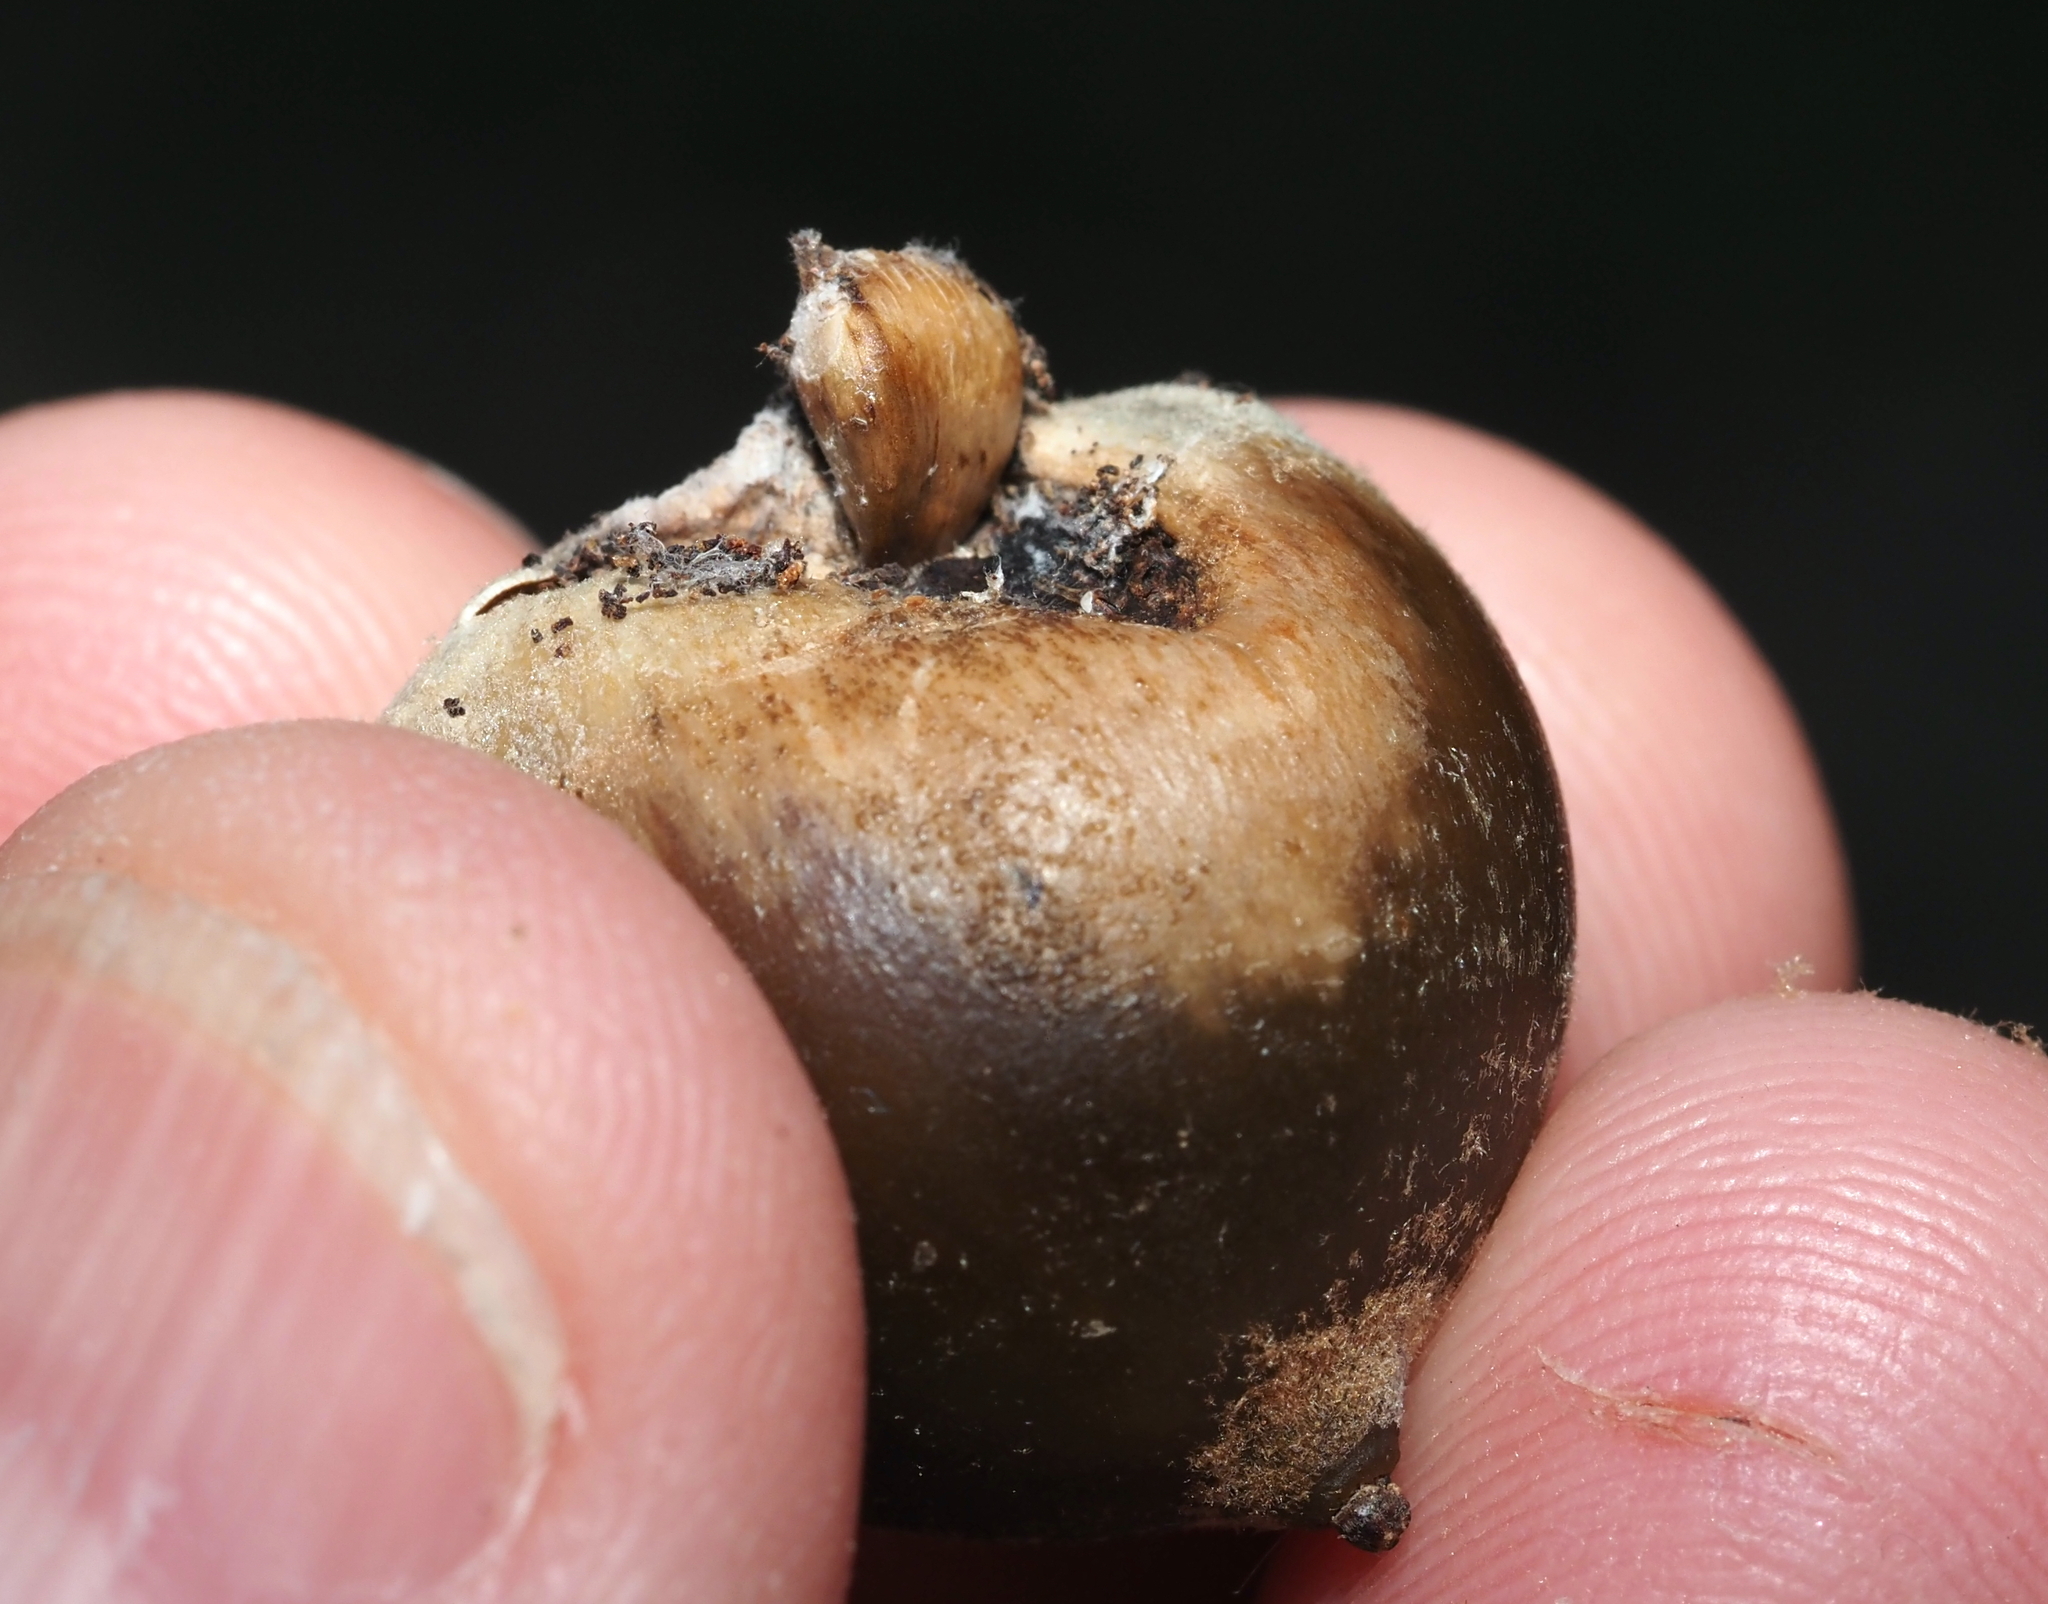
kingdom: Animalia
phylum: Arthropoda
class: Insecta
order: Hymenoptera
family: Cynipidae
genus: Callirhytis
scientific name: Callirhytis
